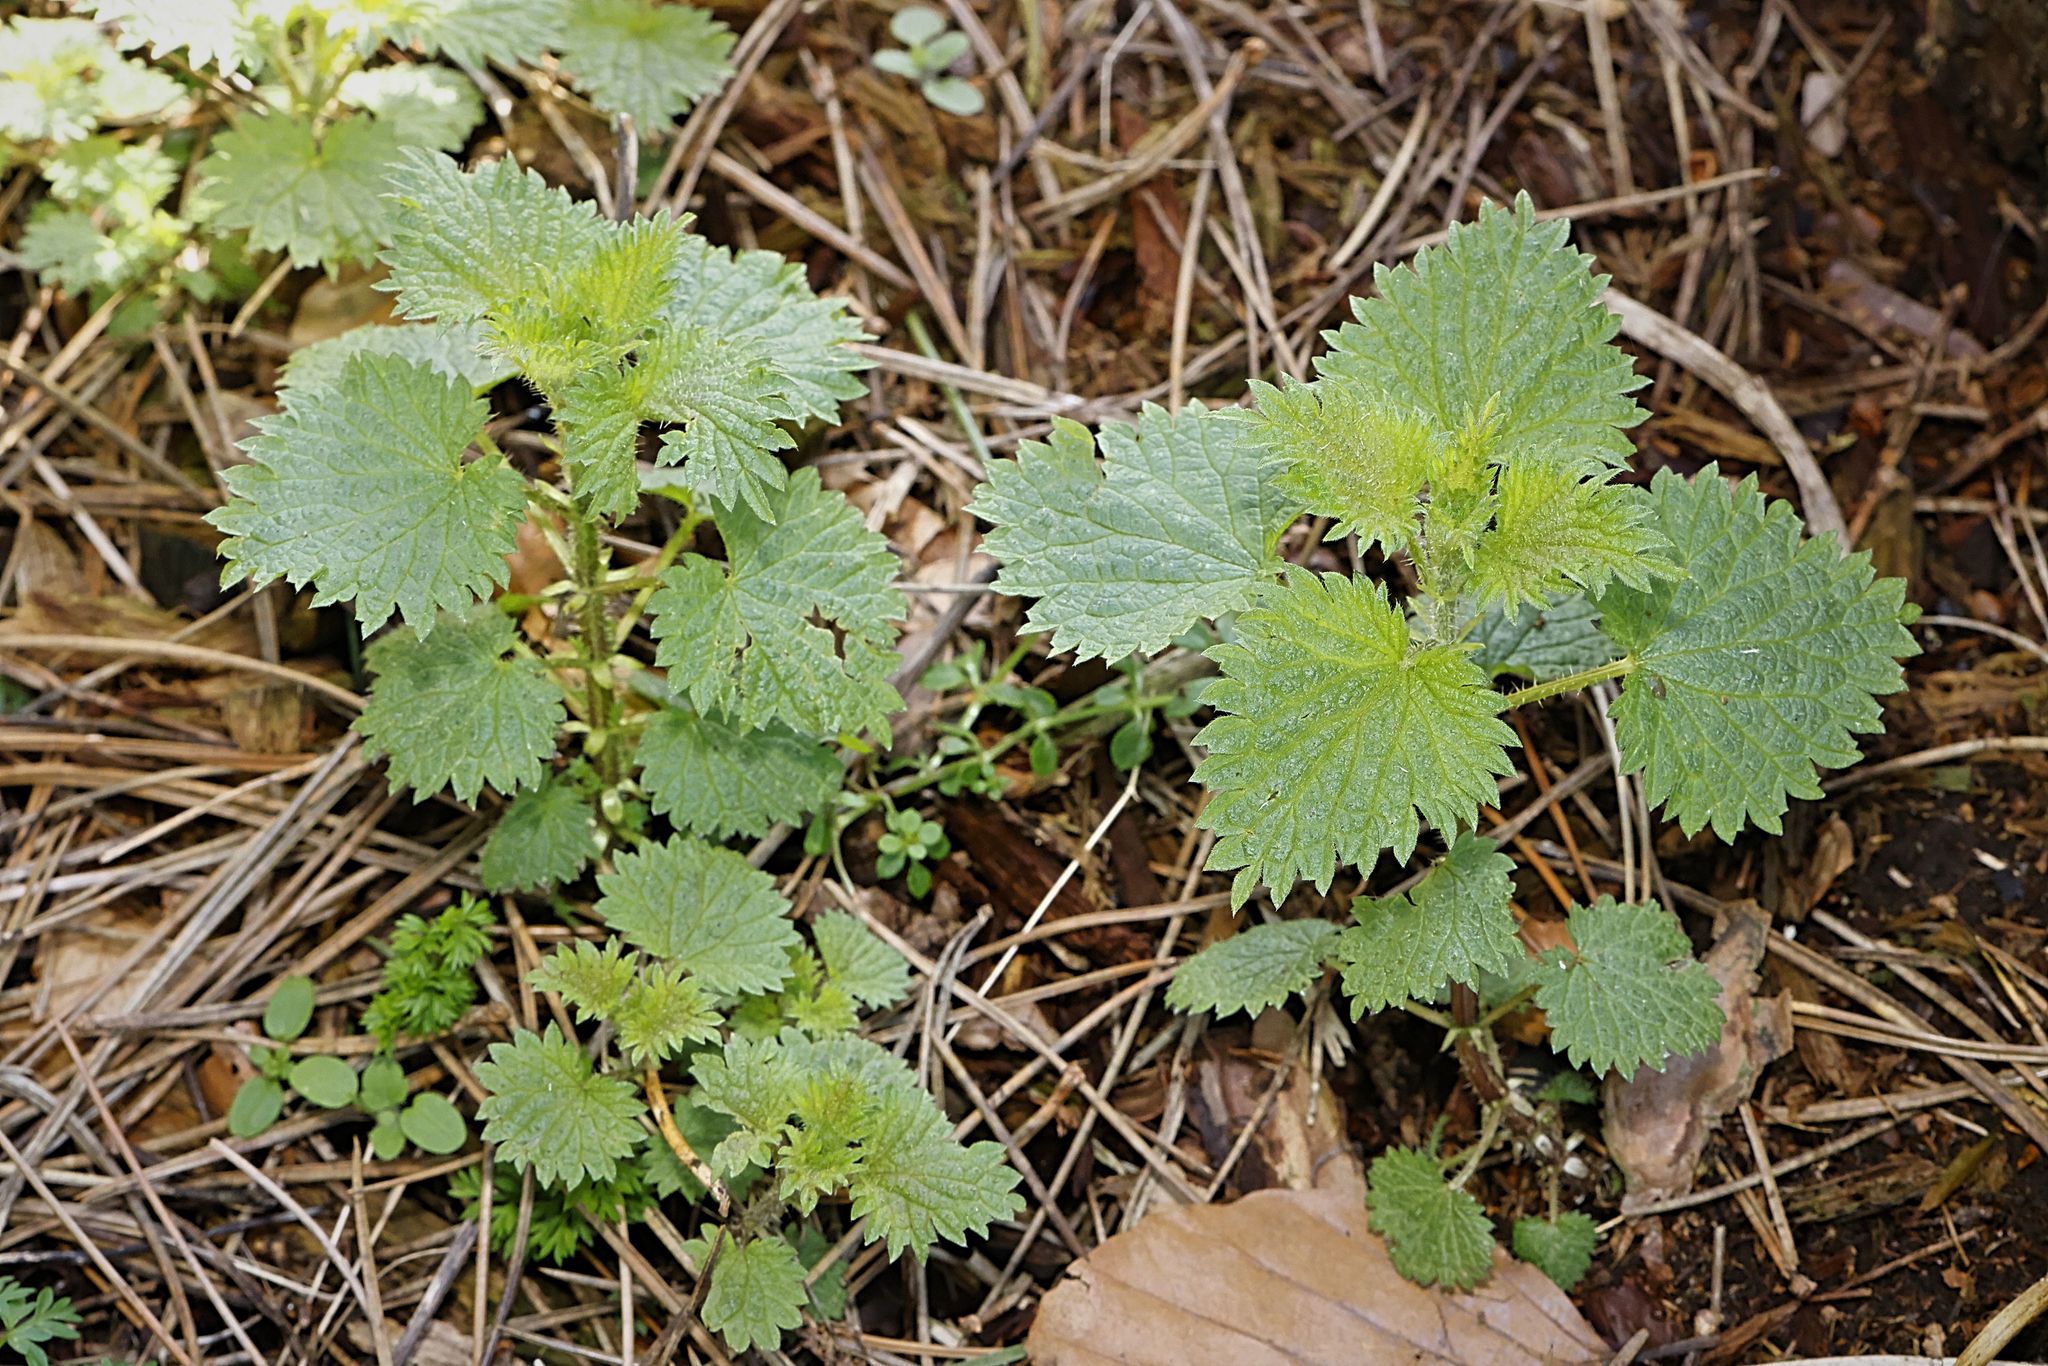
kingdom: Plantae
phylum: Tracheophyta
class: Magnoliopsida
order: Rosales
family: Urticaceae
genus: Urtica
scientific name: Urtica dioica
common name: Common nettle
